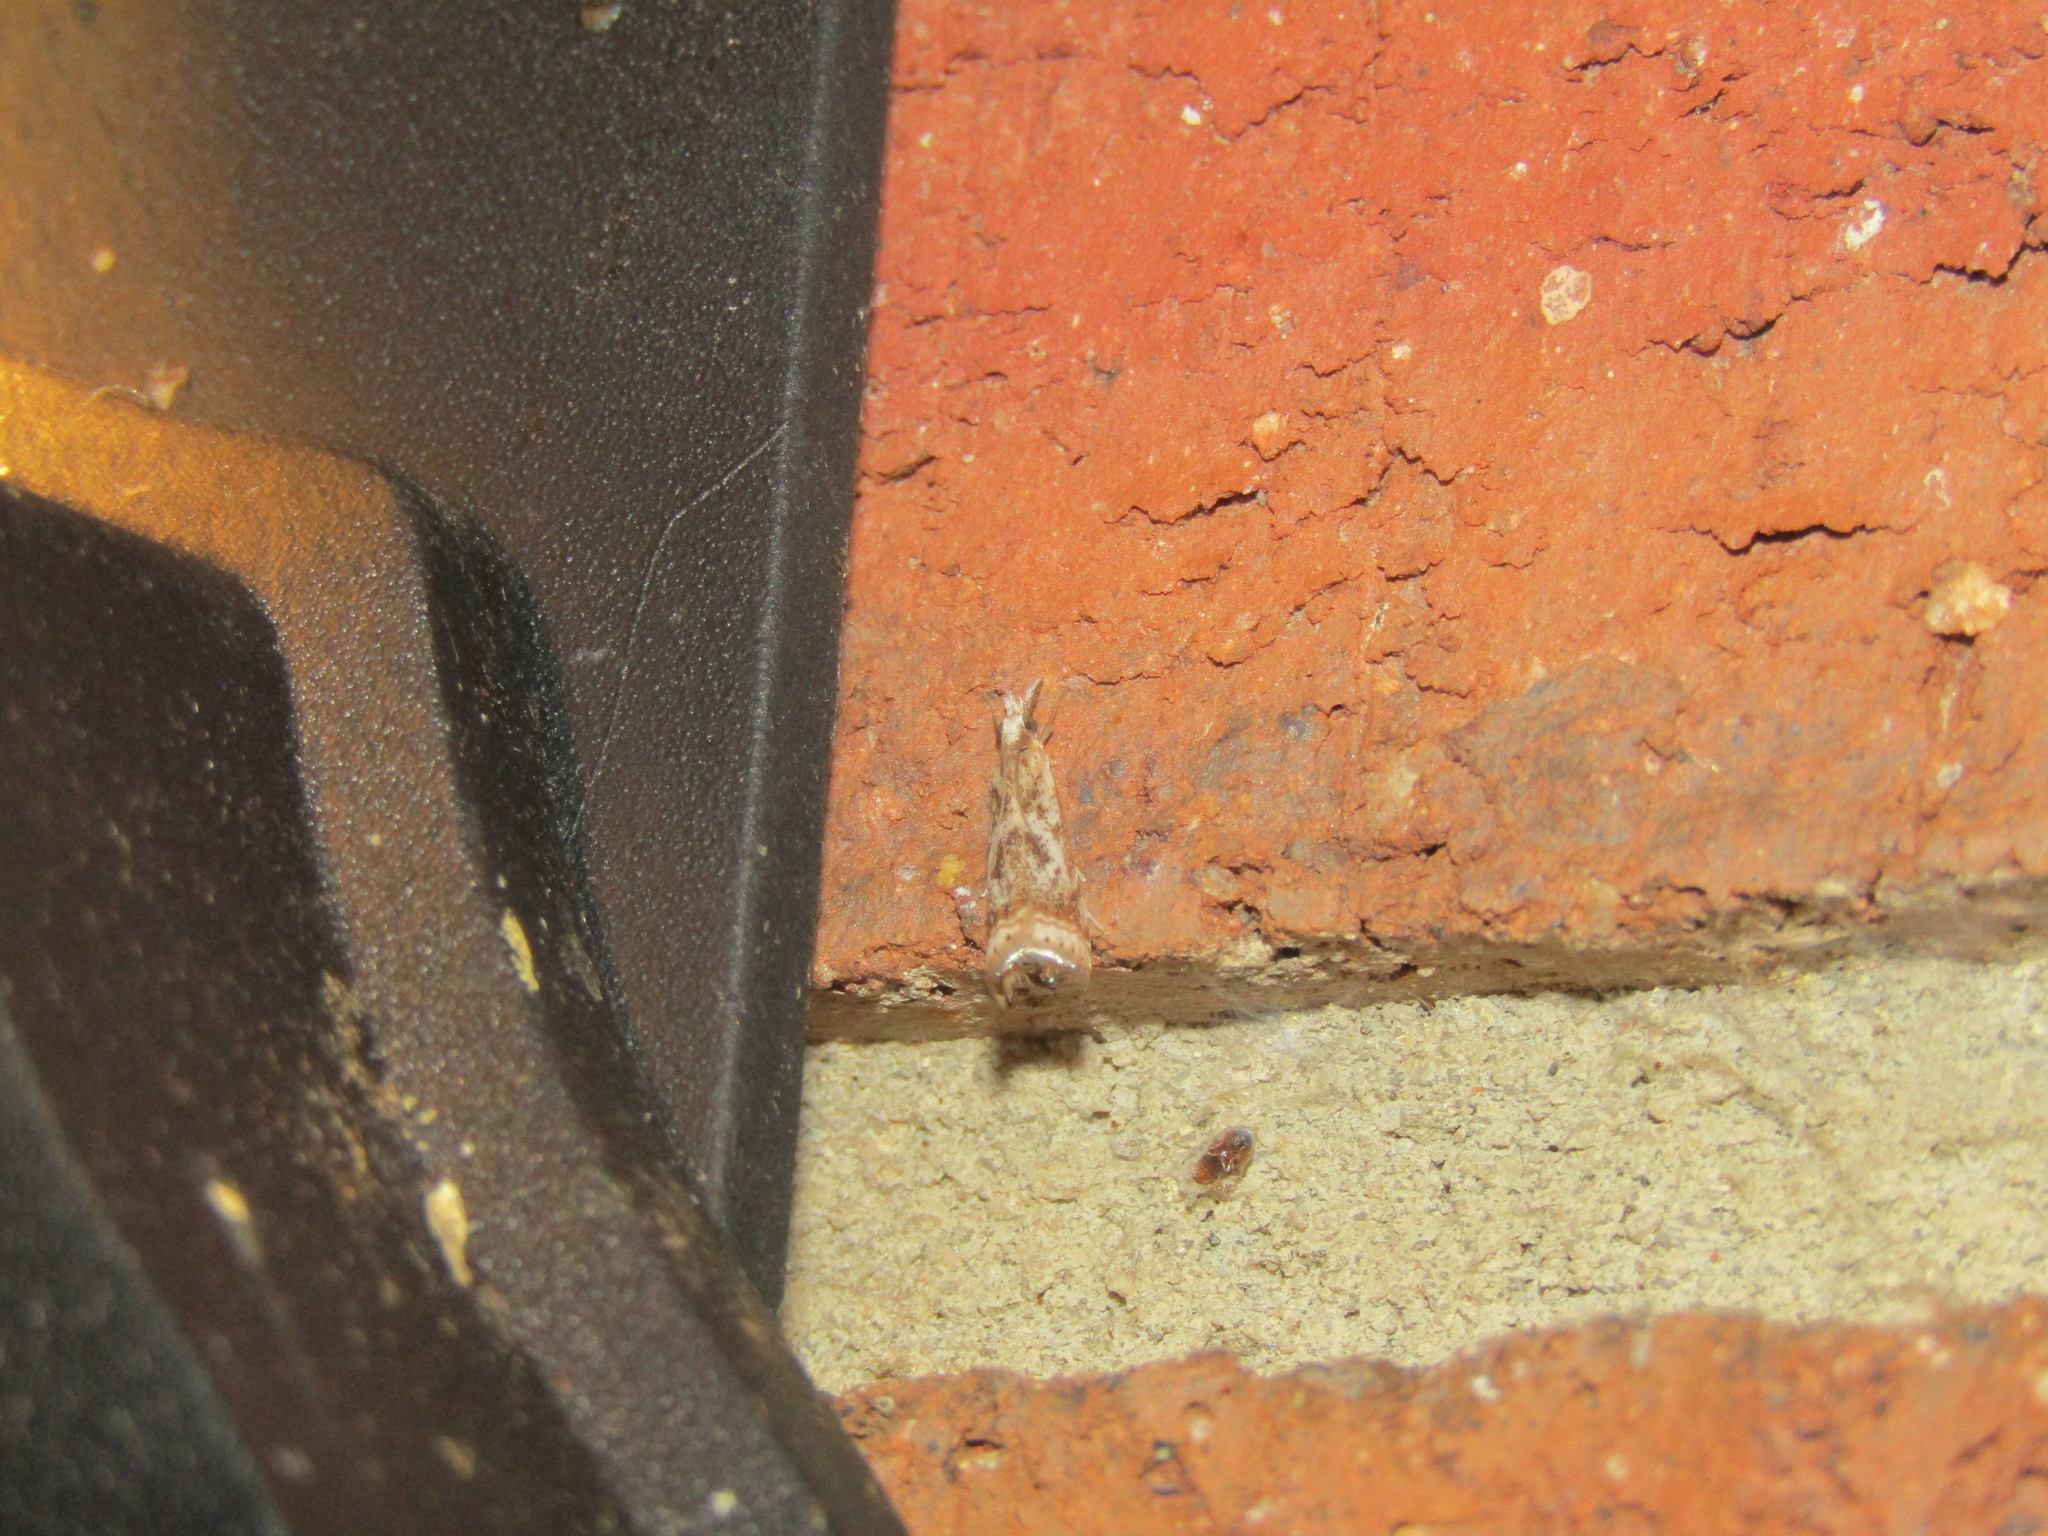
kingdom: Animalia
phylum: Arthropoda
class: Insecta
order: Lepidoptera
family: Crambidae
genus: Microcrambus
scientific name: Microcrambus elegans
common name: Elegant grass-veneer
